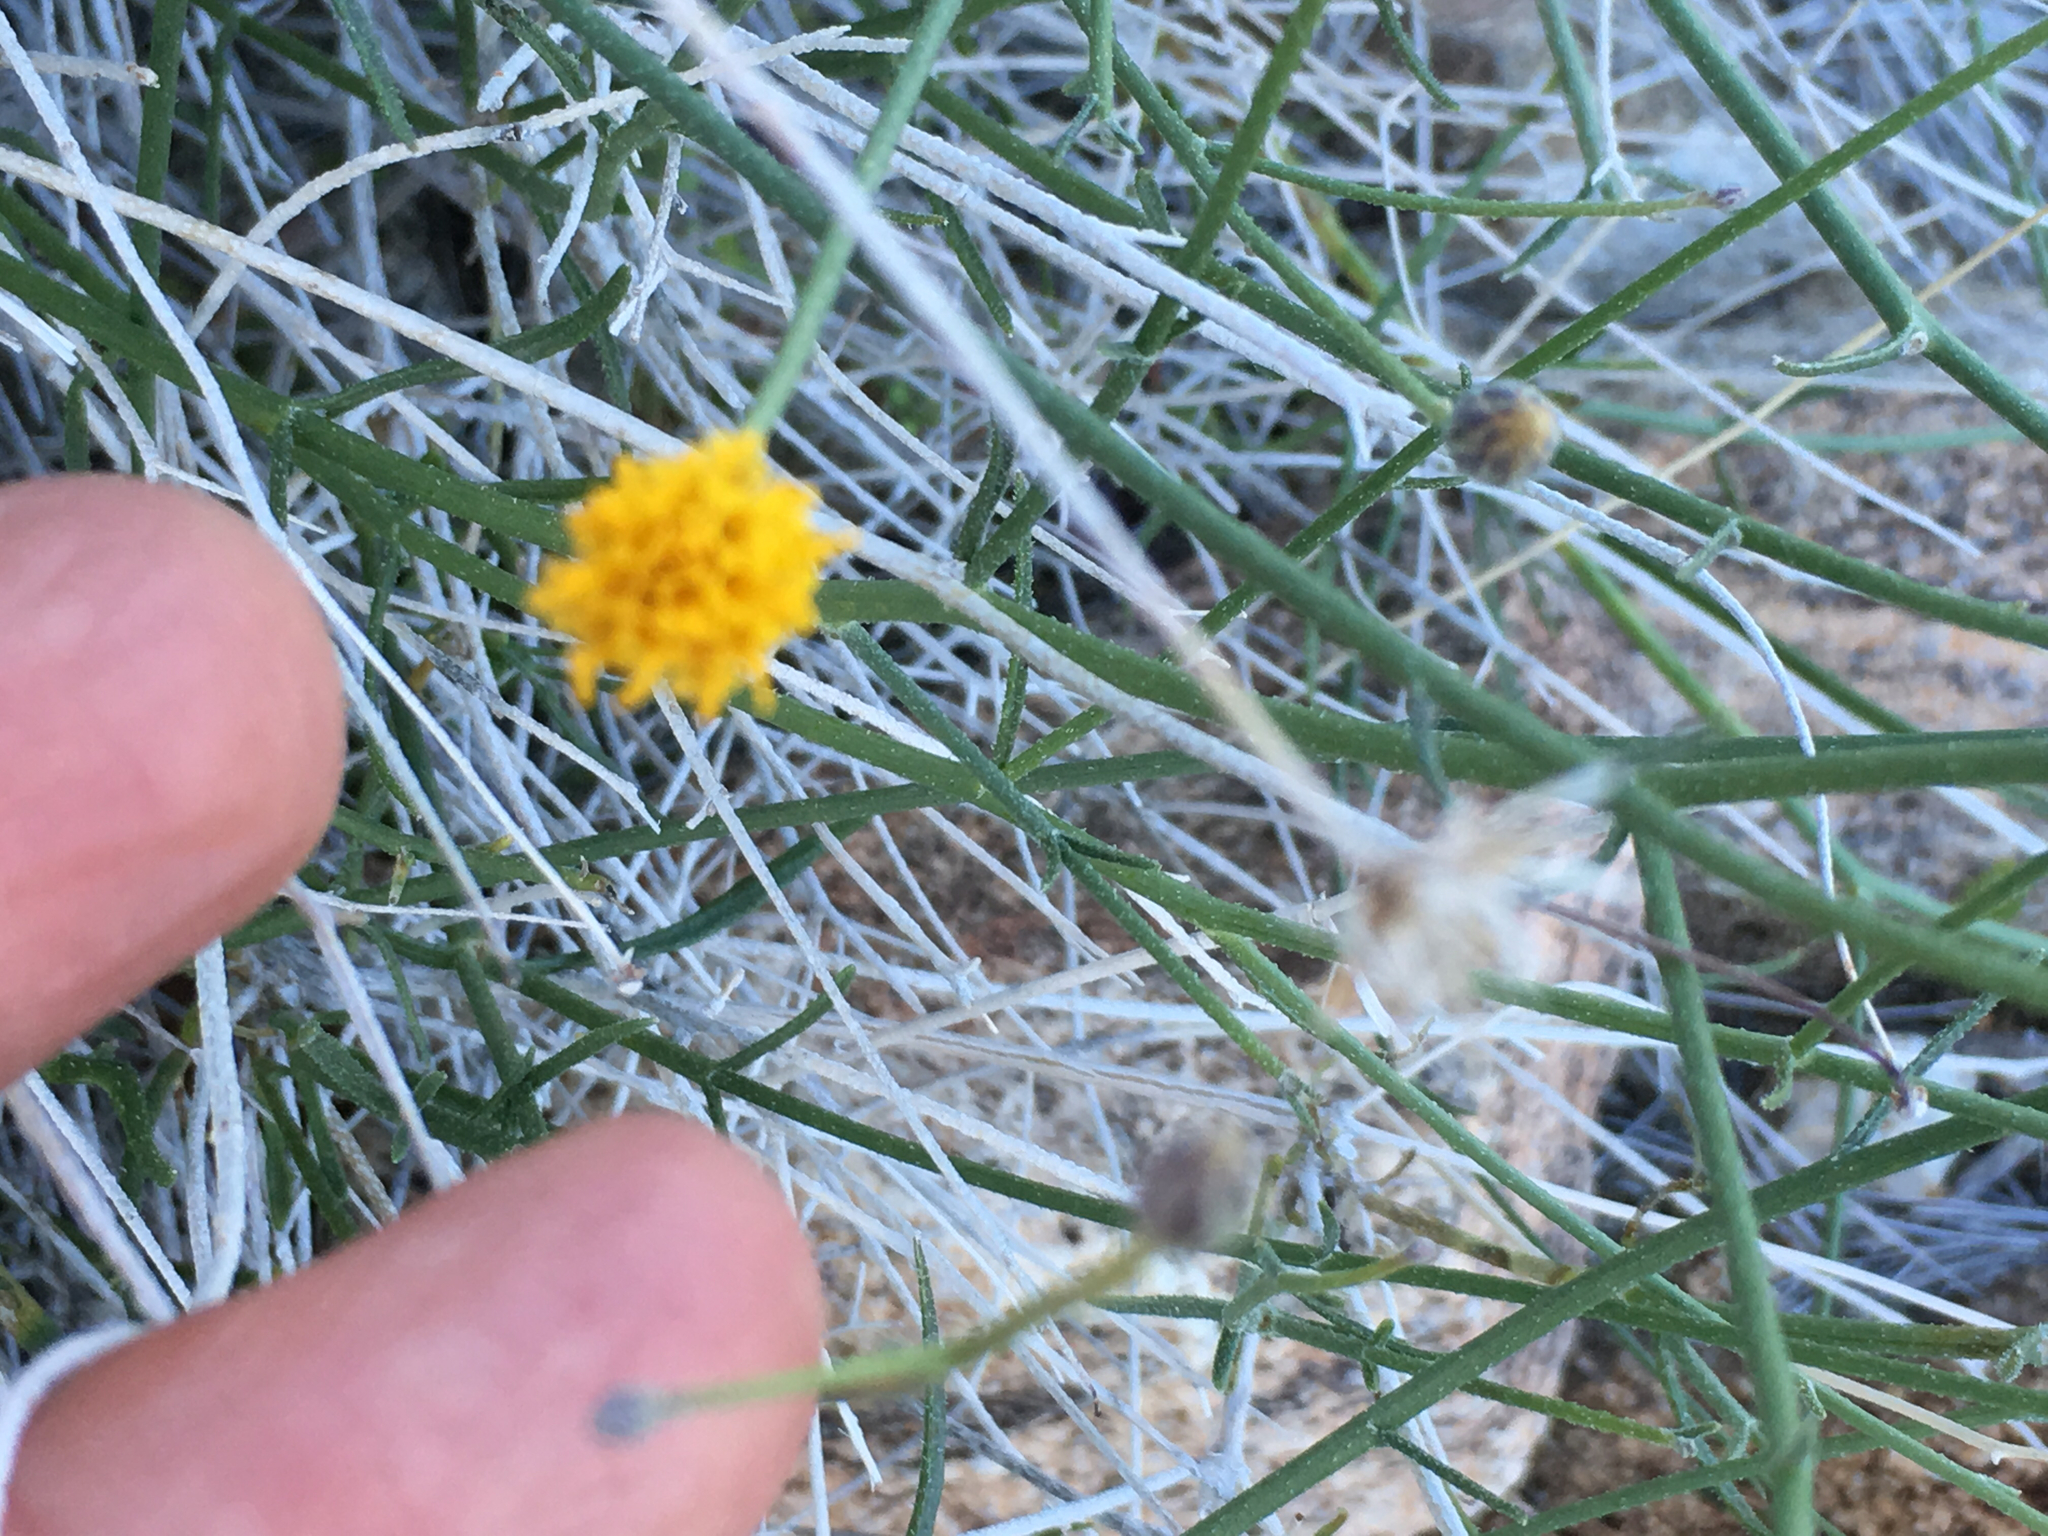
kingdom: Plantae
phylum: Tracheophyta
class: Magnoliopsida
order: Asterales
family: Asteraceae
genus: Bebbia
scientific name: Bebbia juncea
